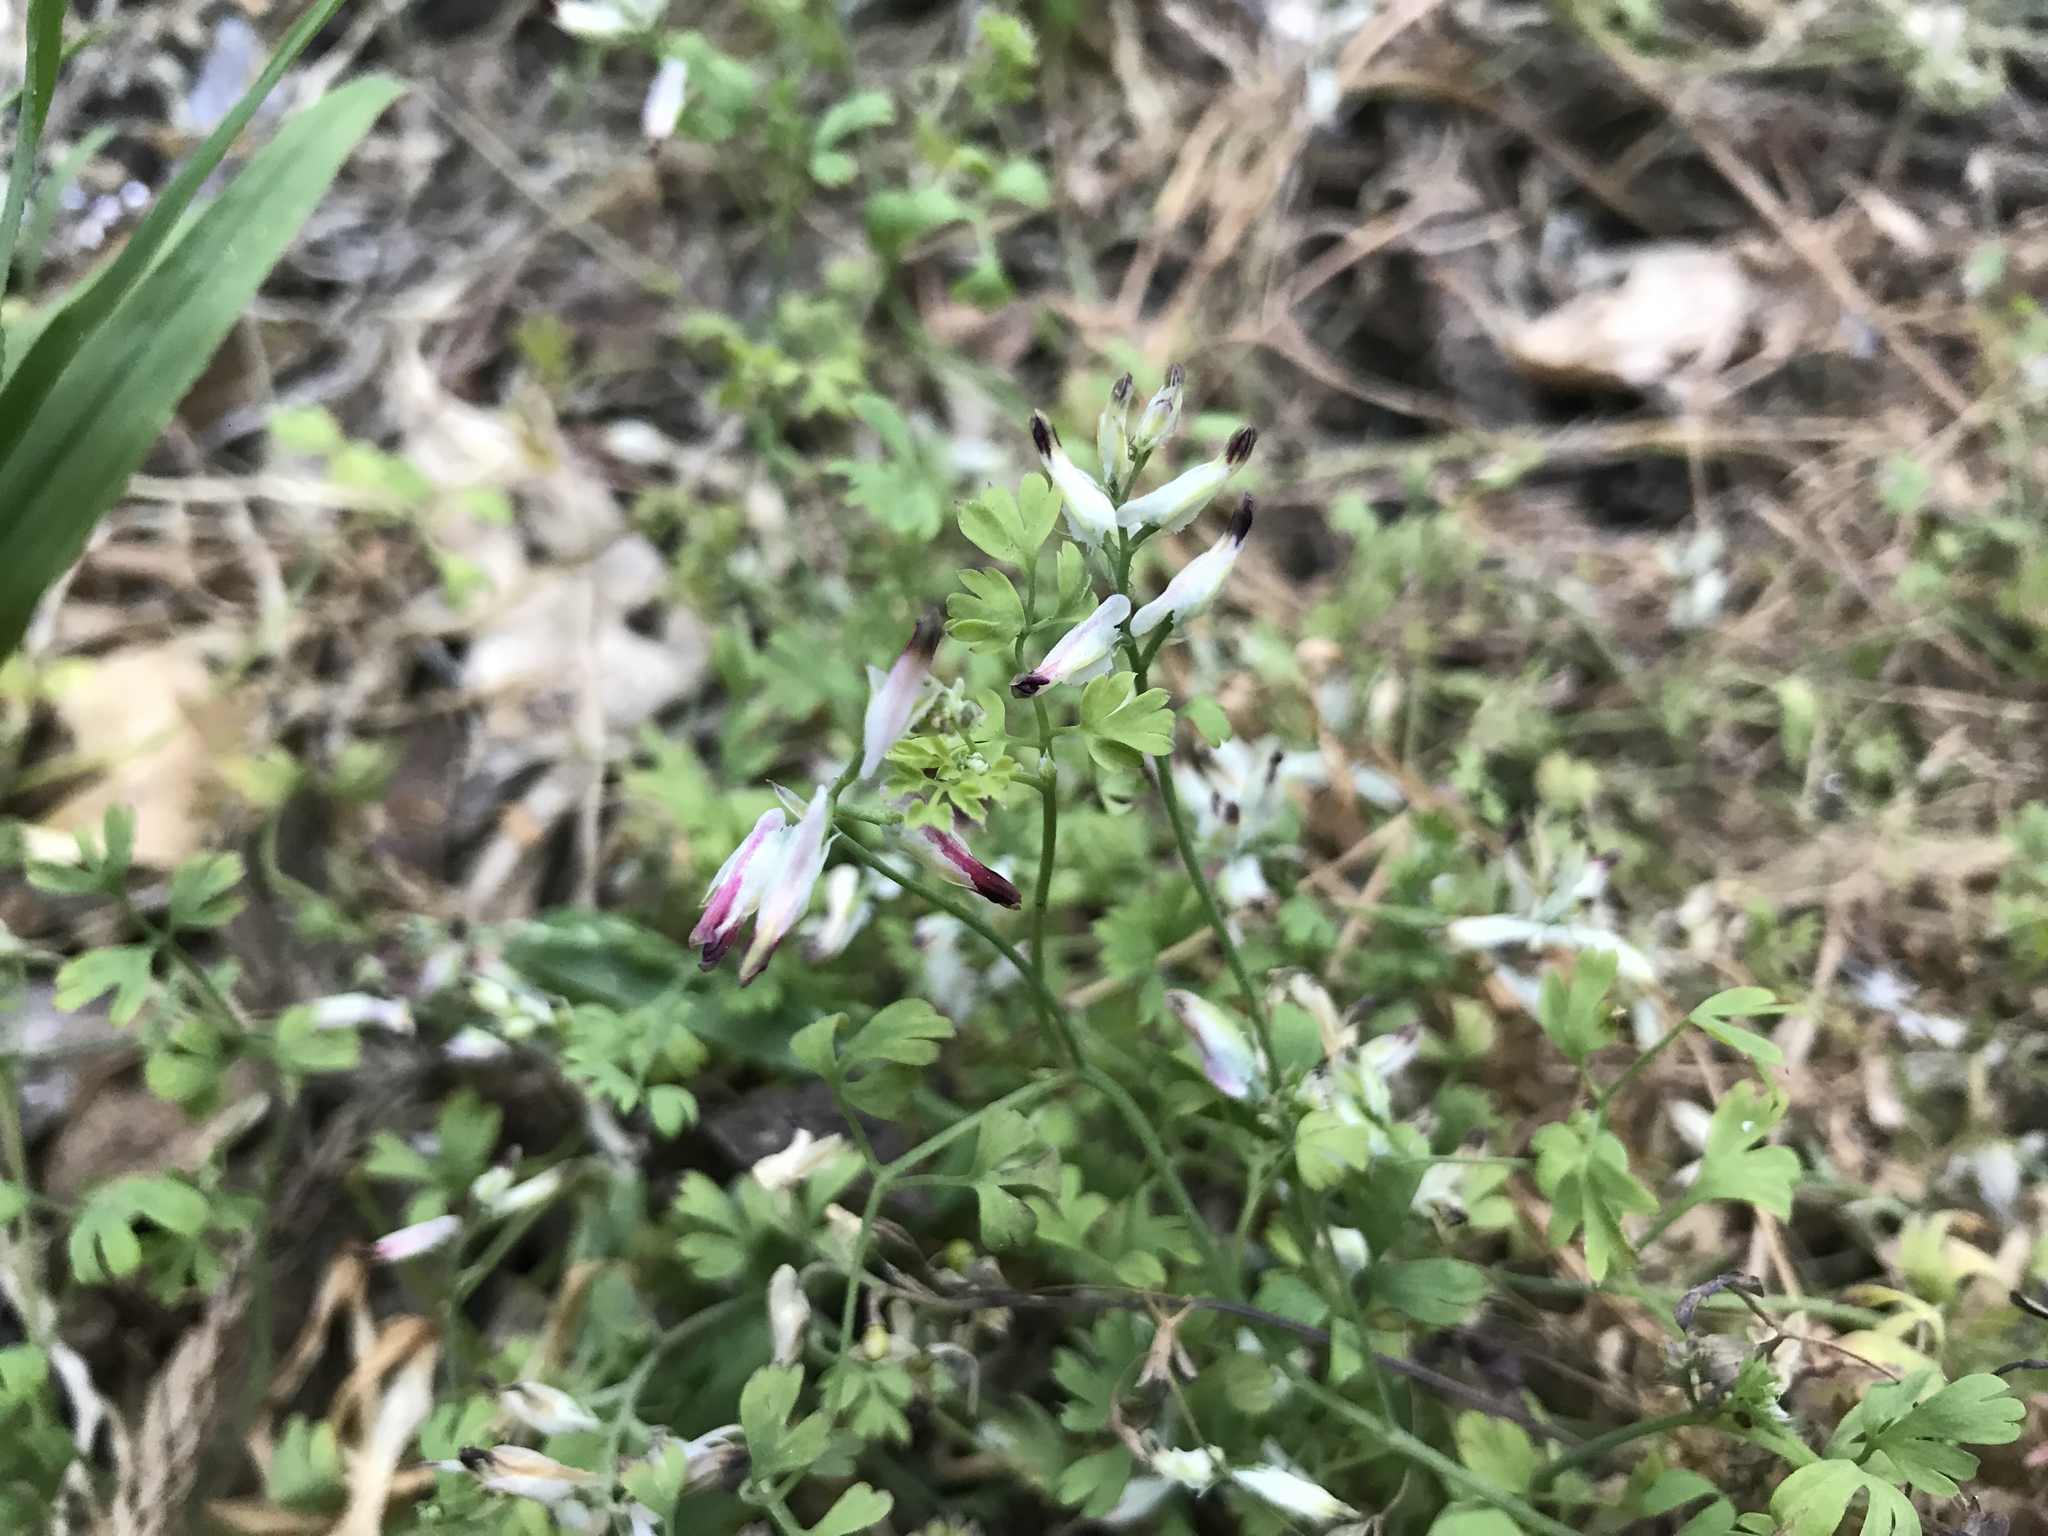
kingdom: Plantae
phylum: Tracheophyta
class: Magnoliopsida
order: Ranunculales
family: Papaveraceae
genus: Fumaria
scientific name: Fumaria capreolata
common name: White ramping-fumitory
